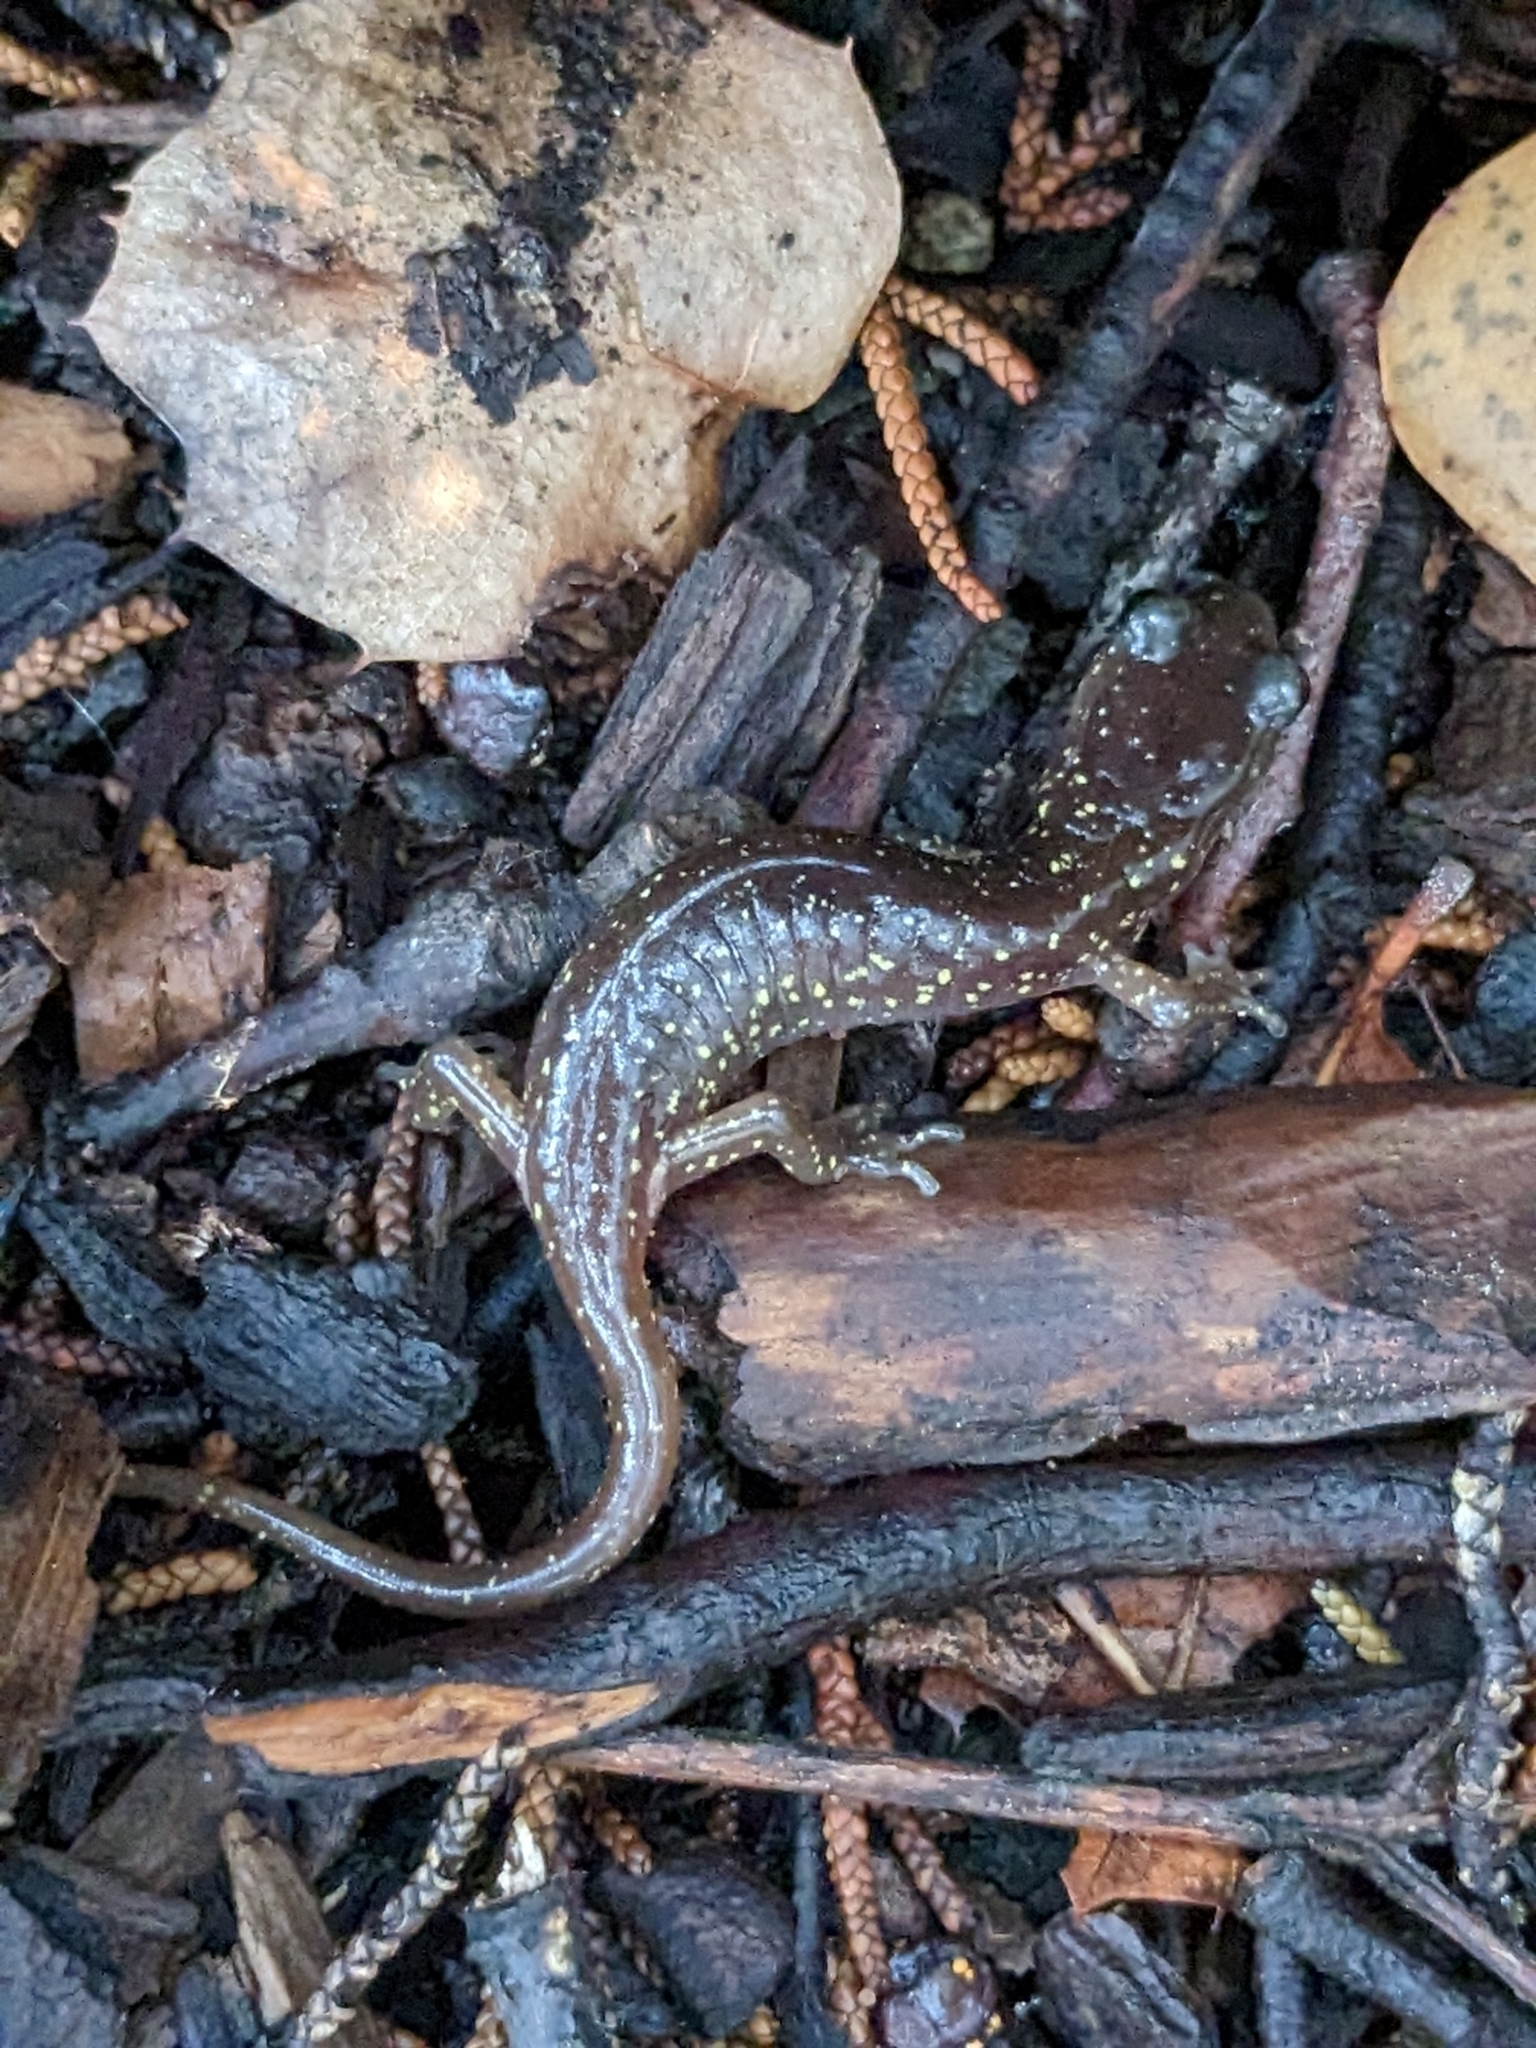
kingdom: Animalia
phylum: Chordata
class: Amphibia
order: Caudata
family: Plethodontidae
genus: Aneides
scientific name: Aneides lugubris
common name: Arboreal salamander
